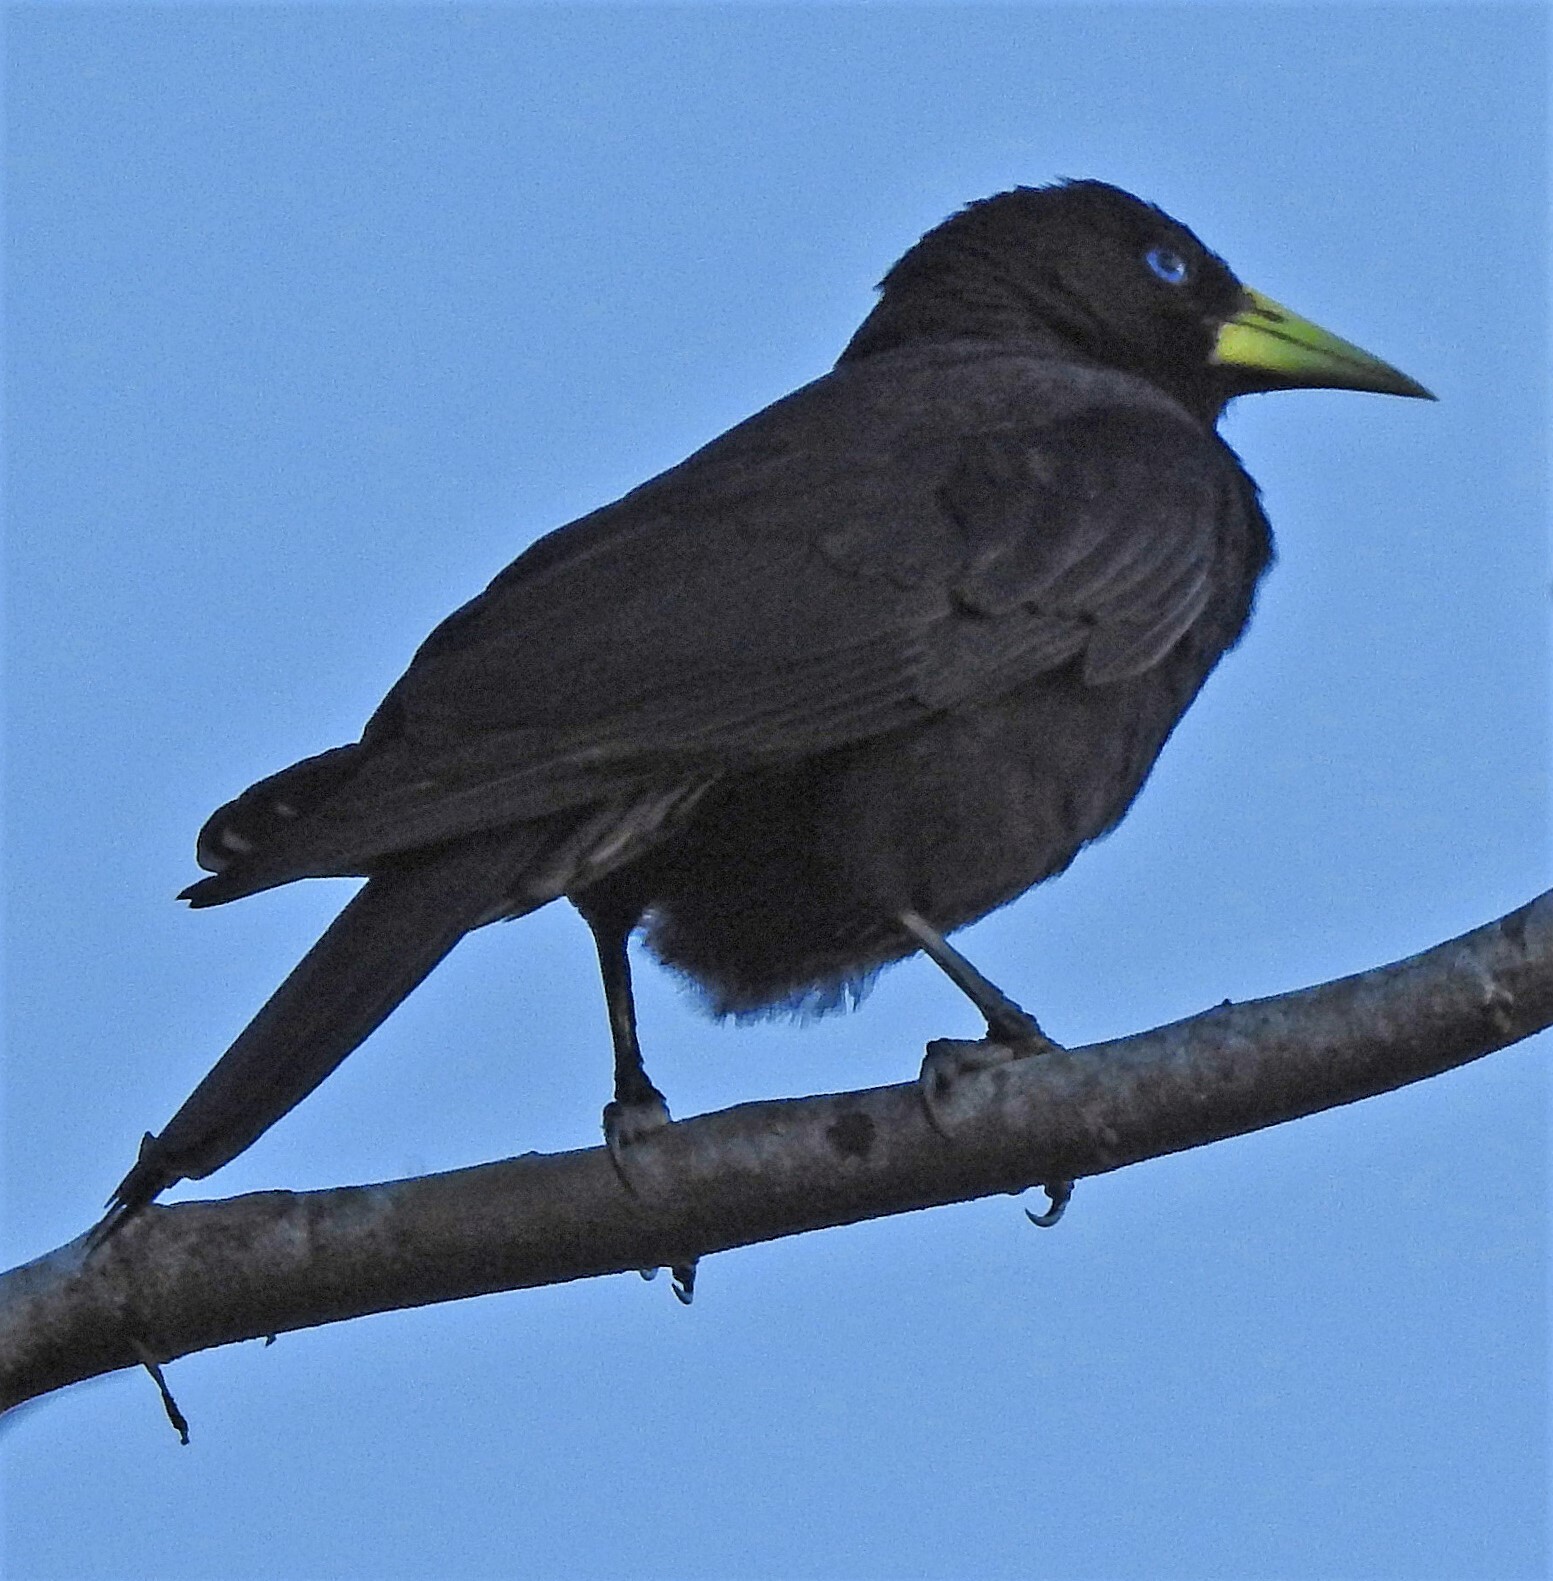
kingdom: Animalia
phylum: Chordata
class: Aves
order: Passeriformes
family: Icteridae
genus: Cacicus
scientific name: Cacicus haemorrhous
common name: Red-rumped cacique
